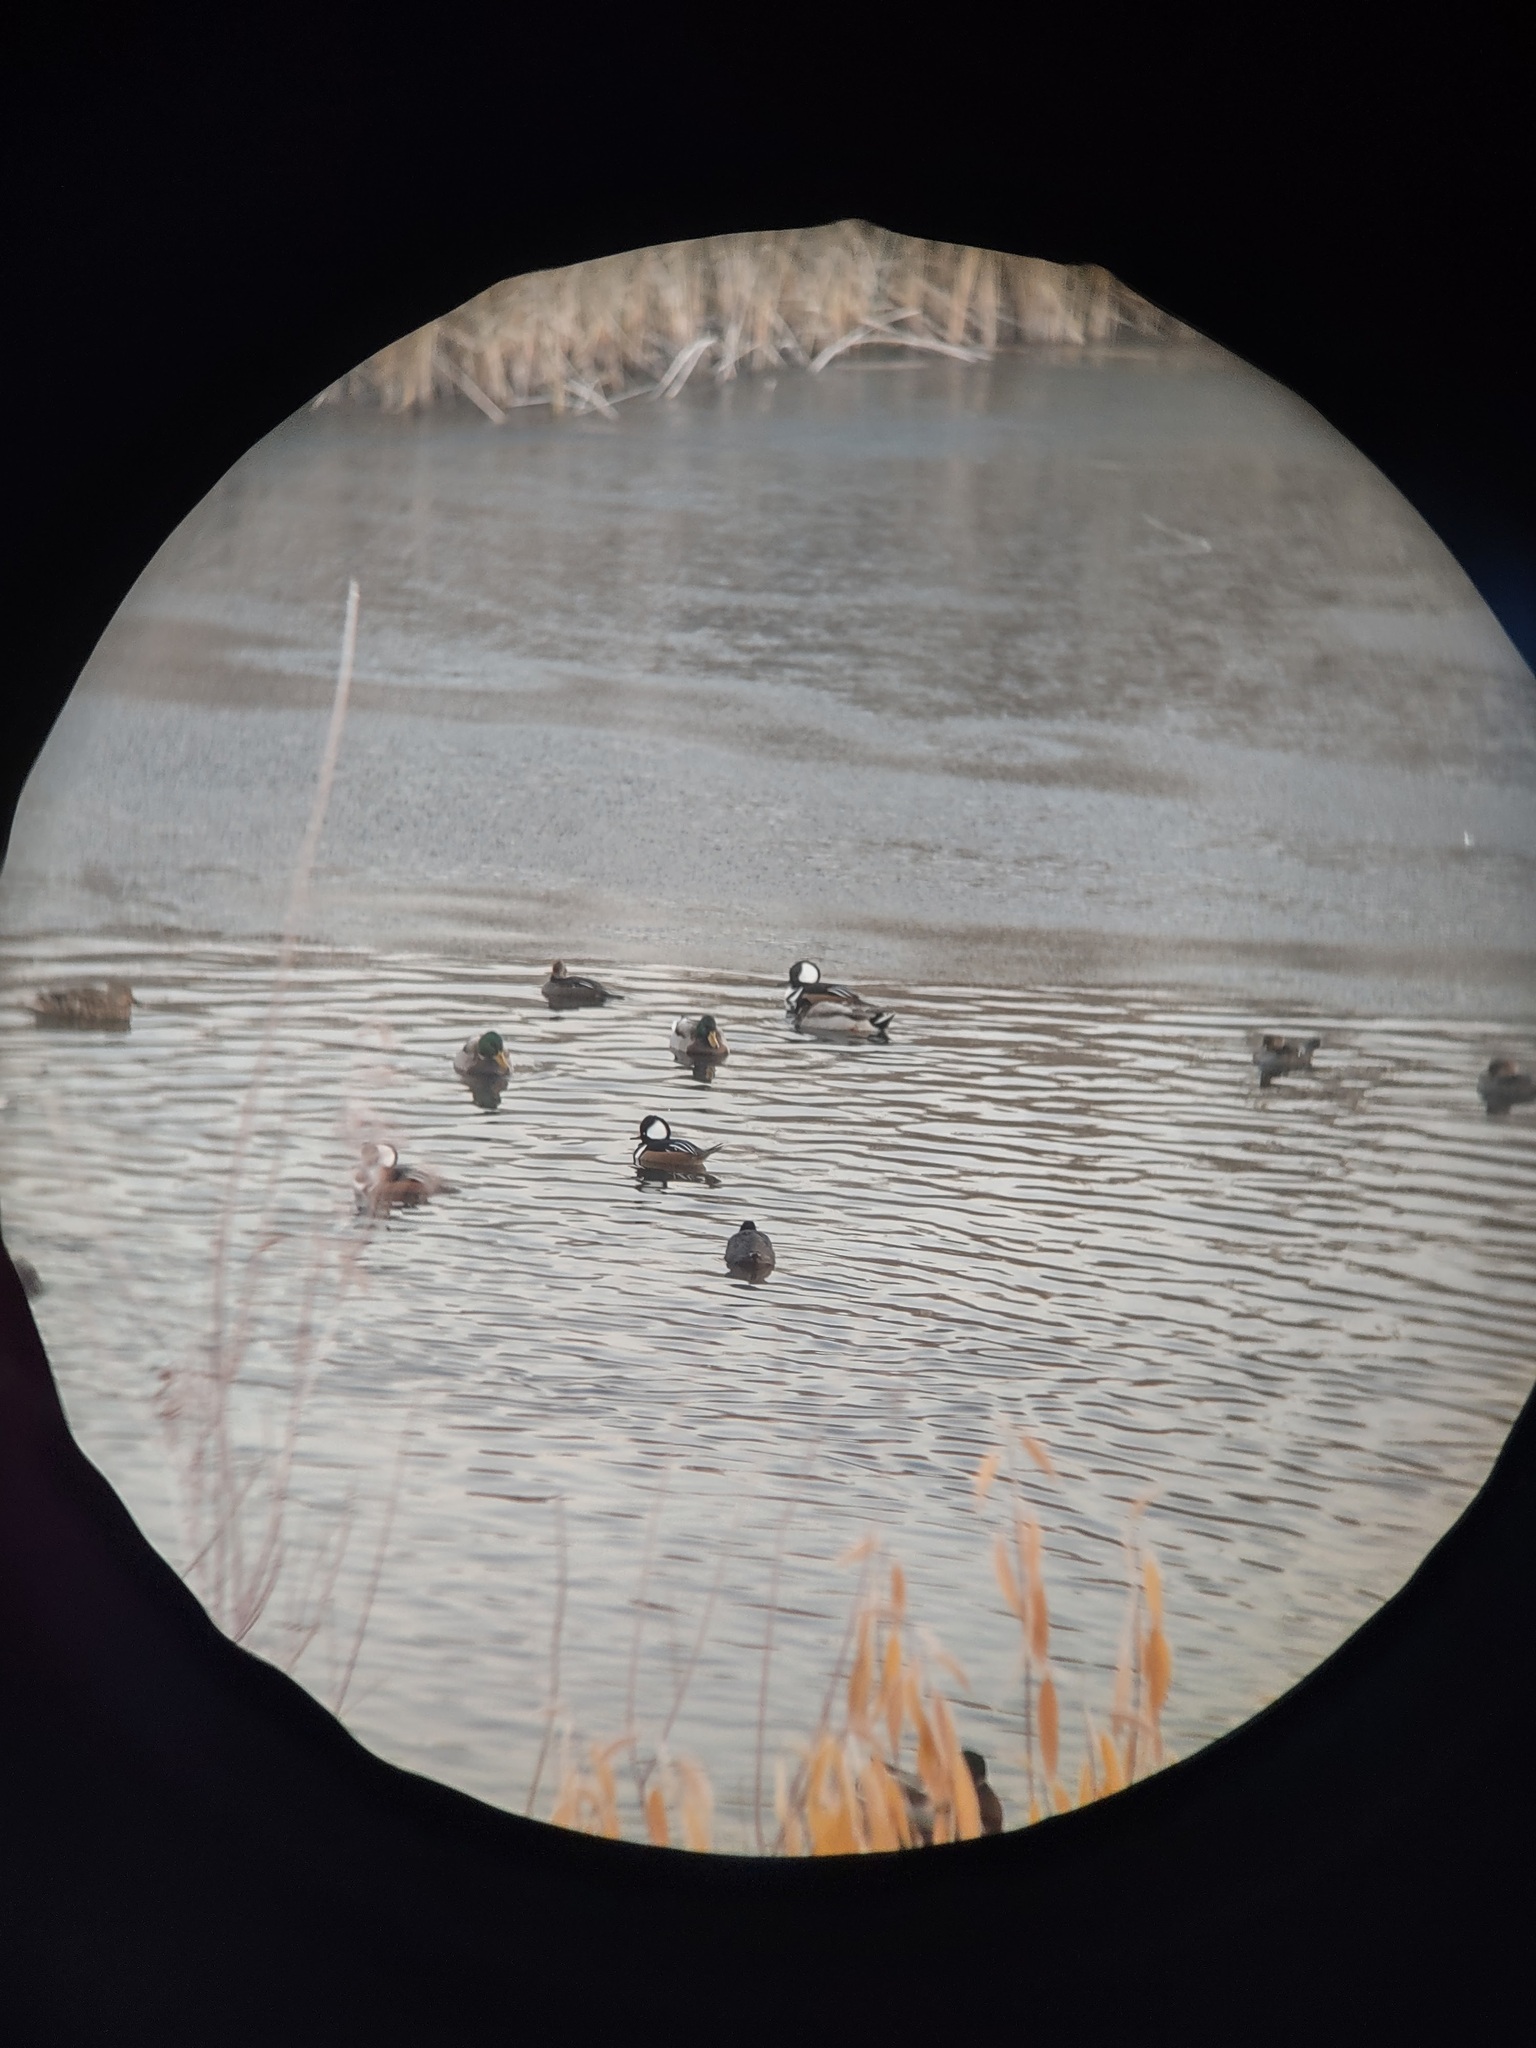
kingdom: Animalia
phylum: Chordata
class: Aves
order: Anseriformes
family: Anatidae
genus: Lophodytes
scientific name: Lophodytes cucullatus
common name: Hooded merganser
